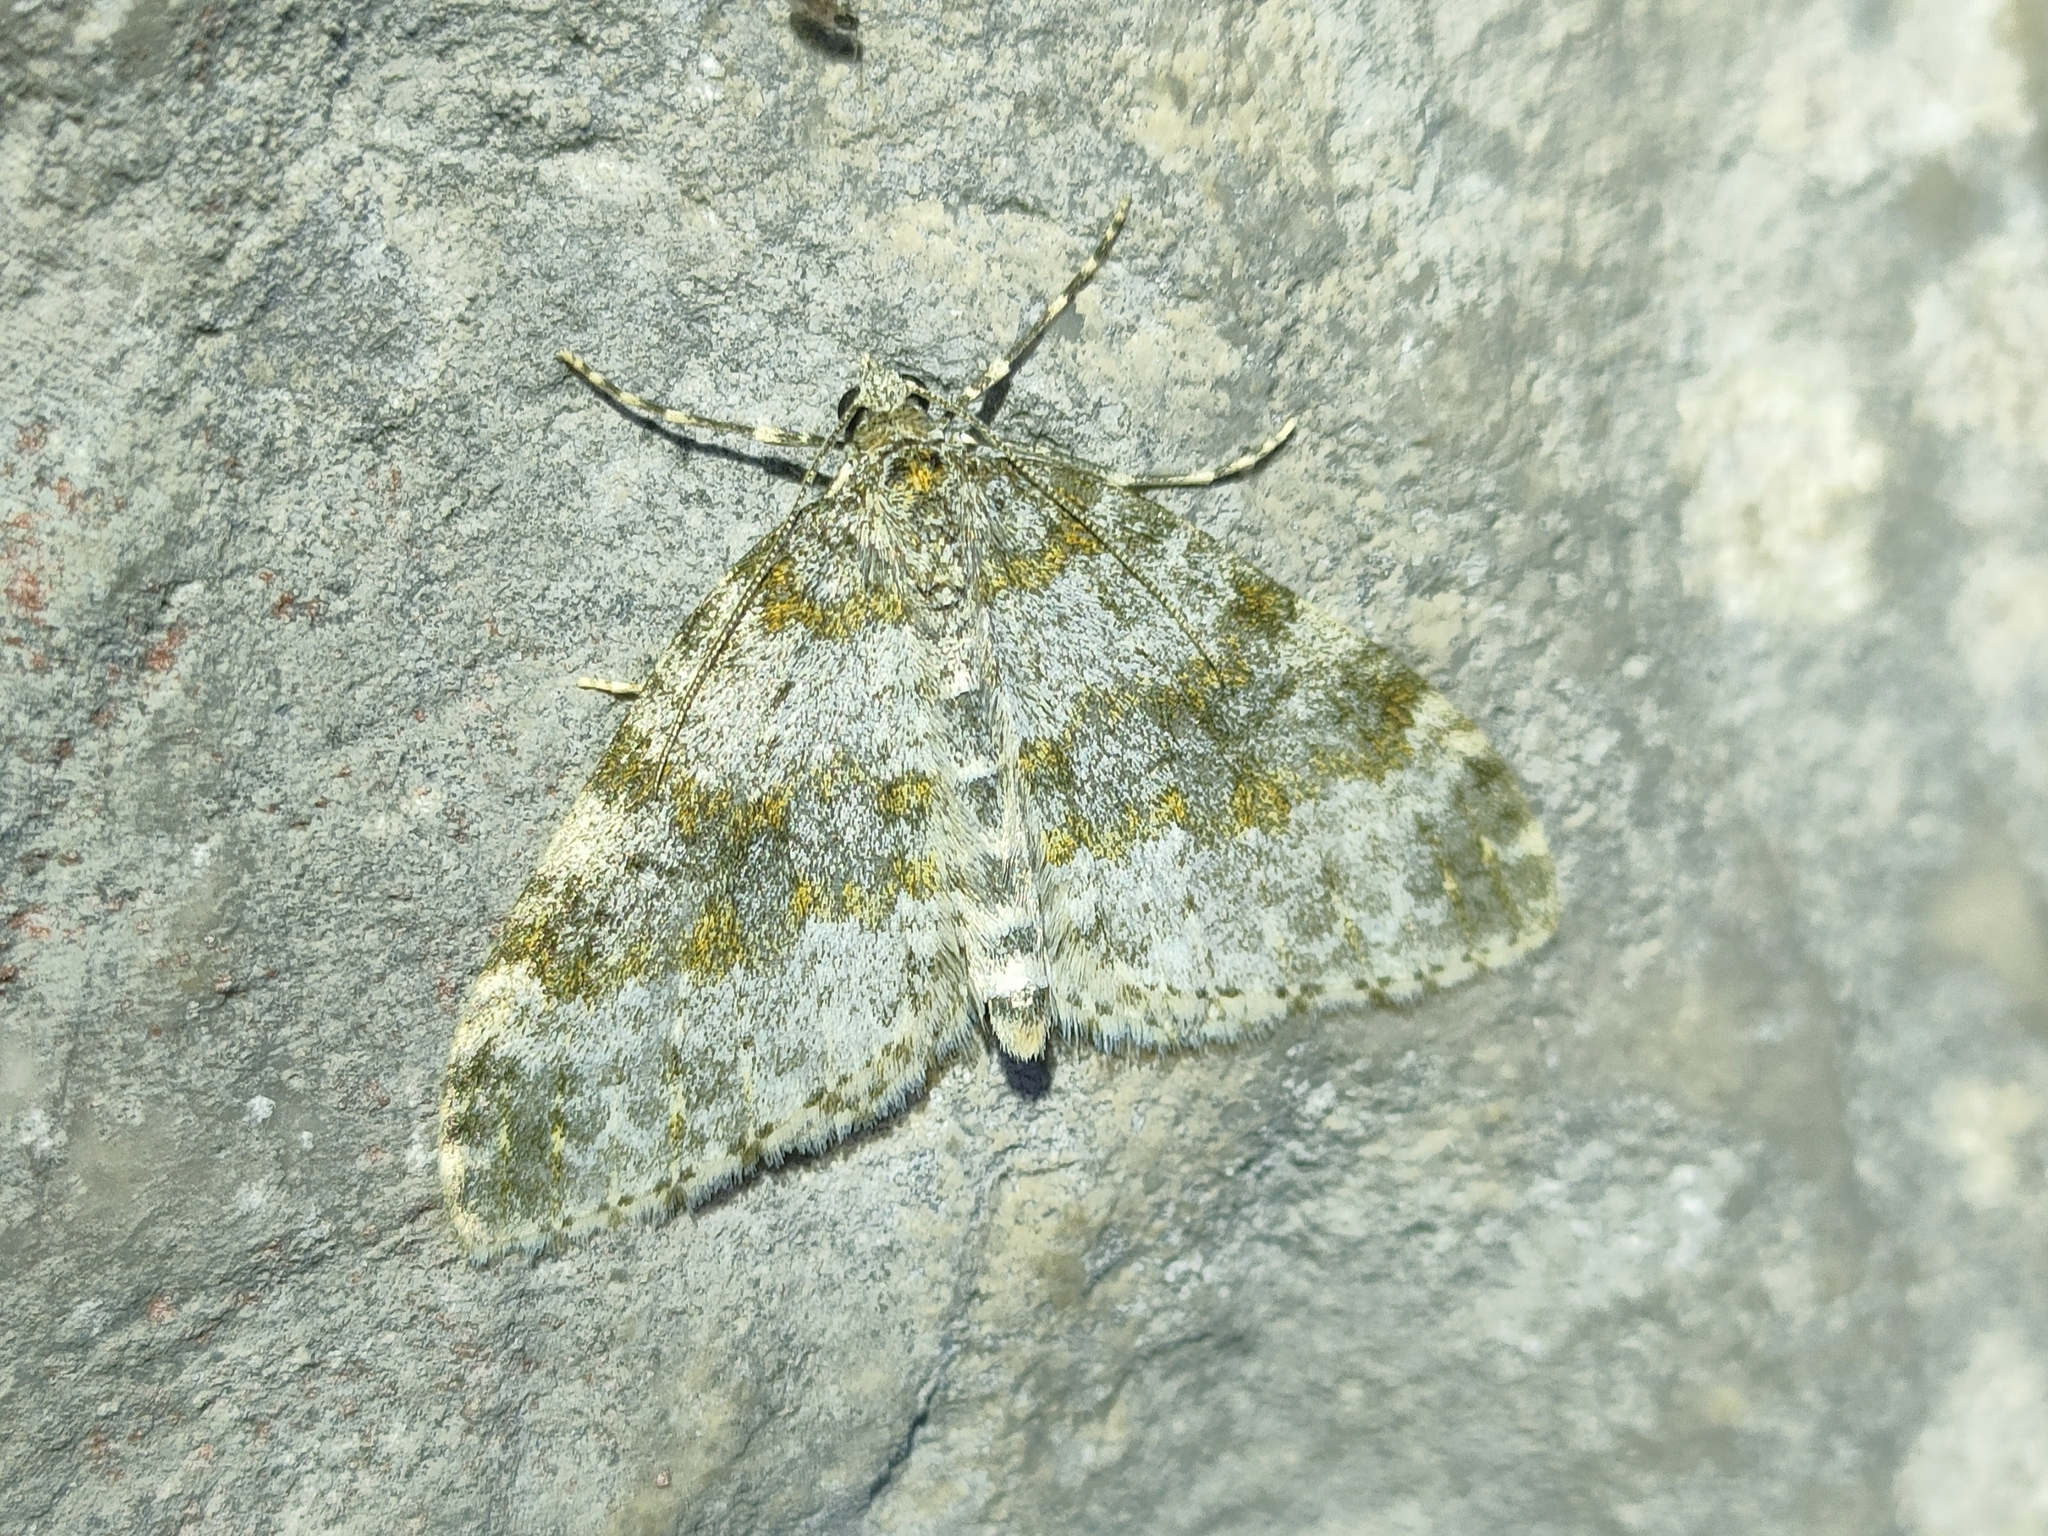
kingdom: Animalia
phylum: Arthropoda
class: Insecta
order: Lepidoptera
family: Geometridae
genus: Entephria
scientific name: Entephria flavicinctata
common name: Yellow-ringed carpet
